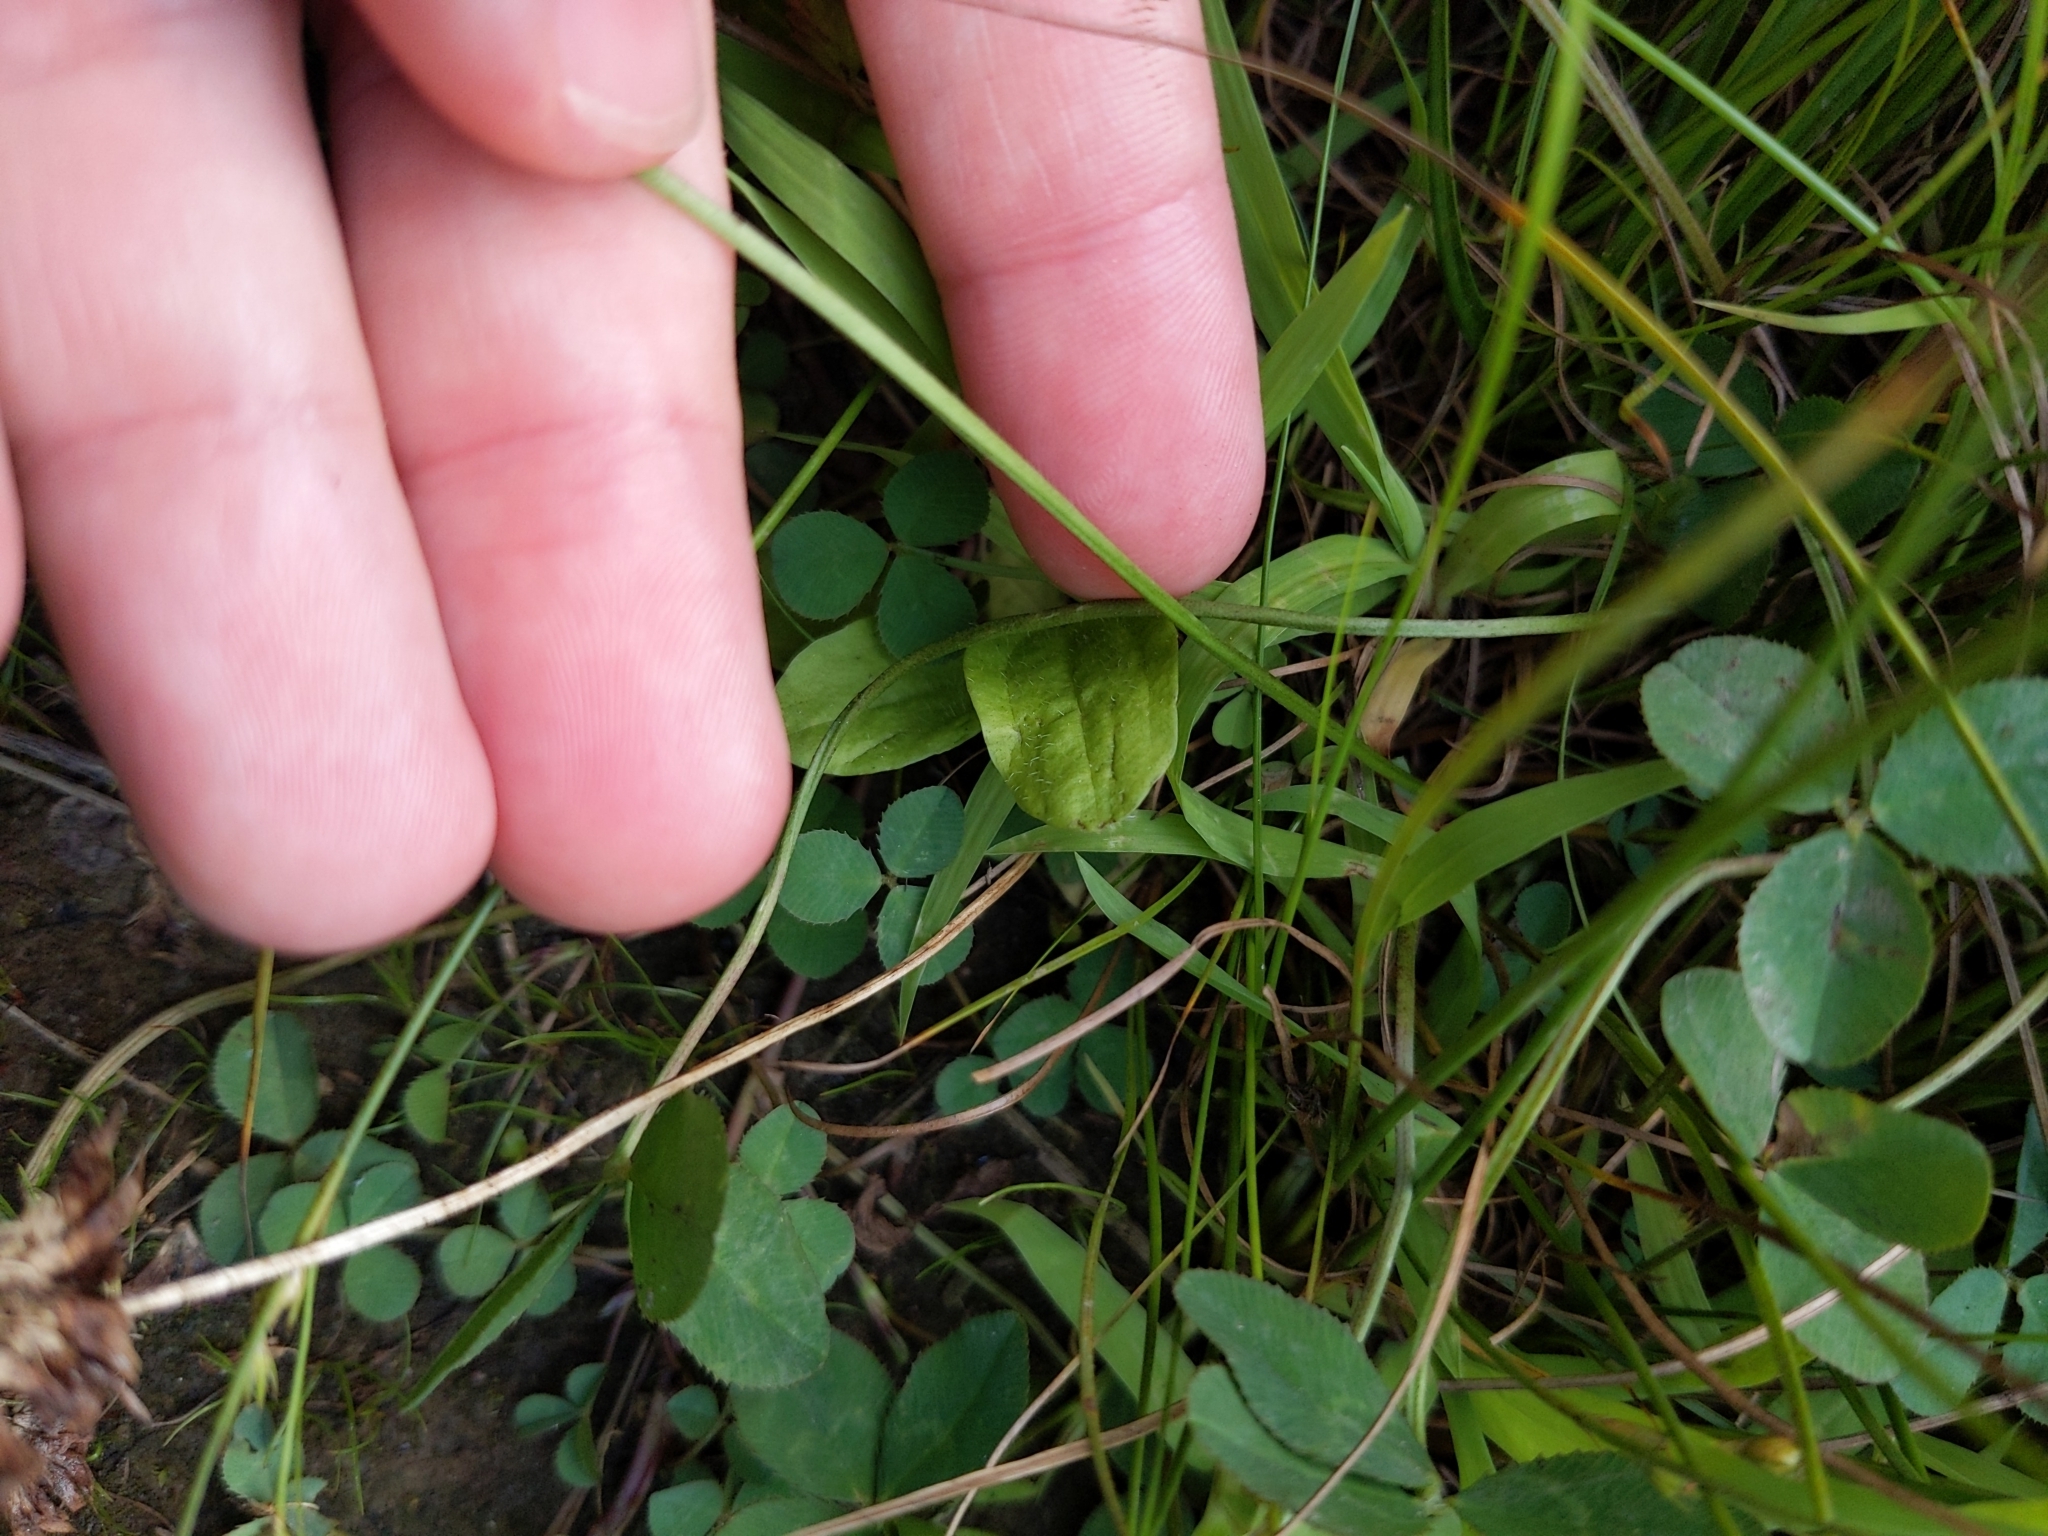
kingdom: Plantae
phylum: Tracheophyta
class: Magnoliopsida
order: Fabales
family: Fabaceae
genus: Trifolium
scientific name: Trifolium repens
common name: White clover
